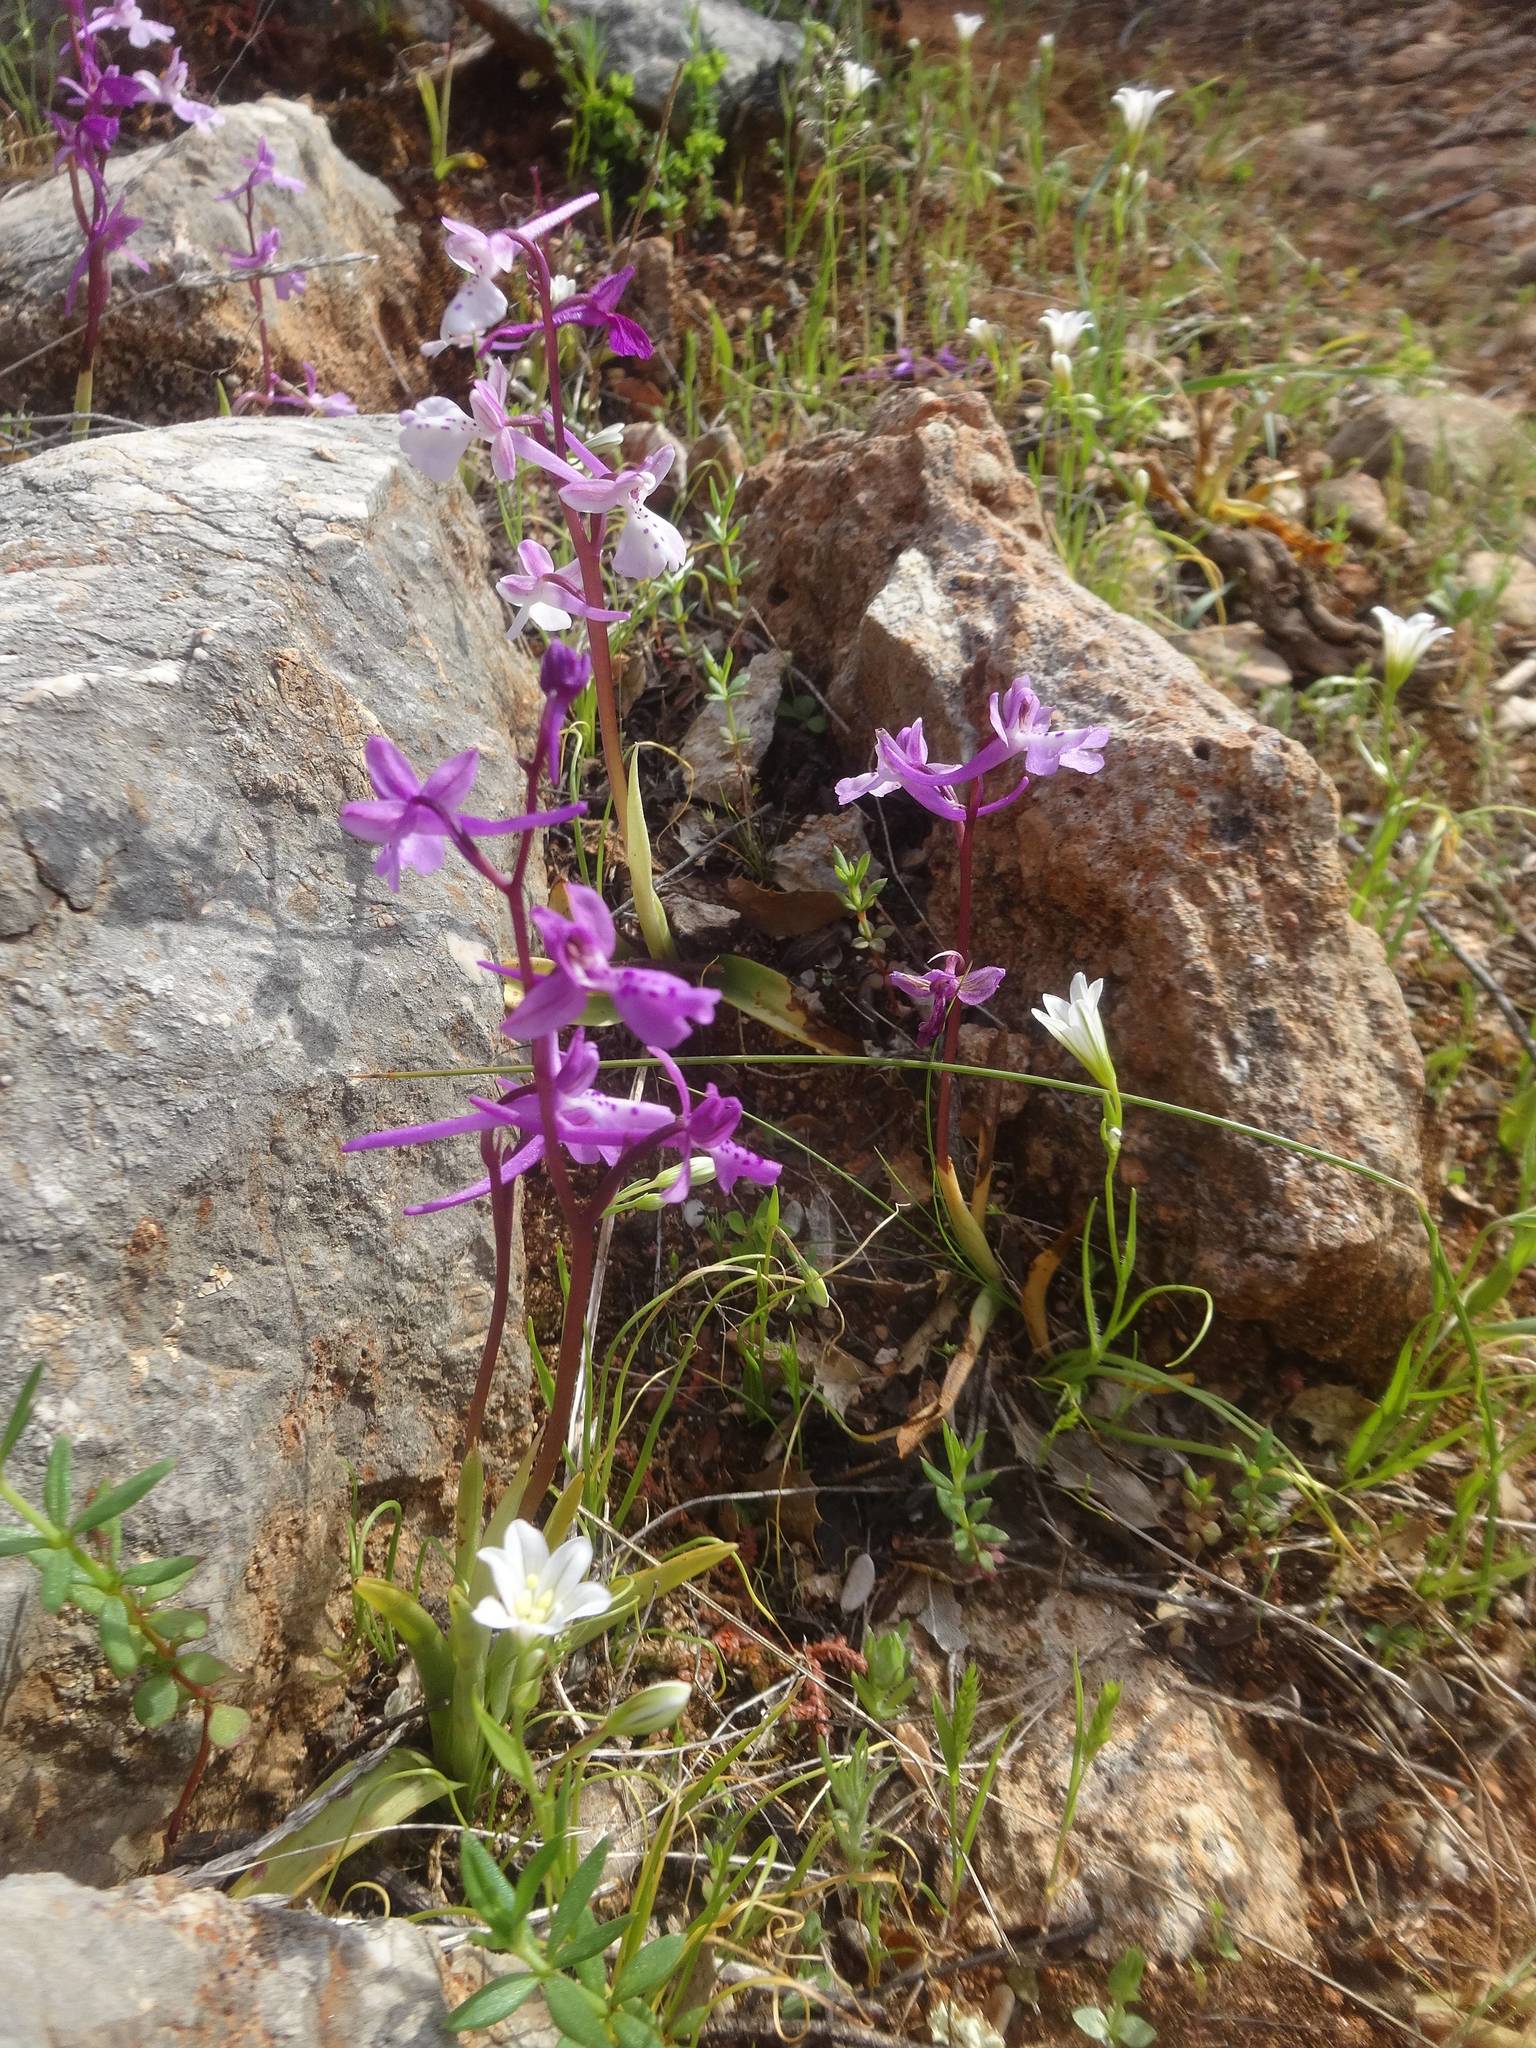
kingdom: Plantae
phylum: Tracheophyta
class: Liliopsida
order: Asparagales
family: Orchidaceae
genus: Orchis
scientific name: Orchis anatolica
